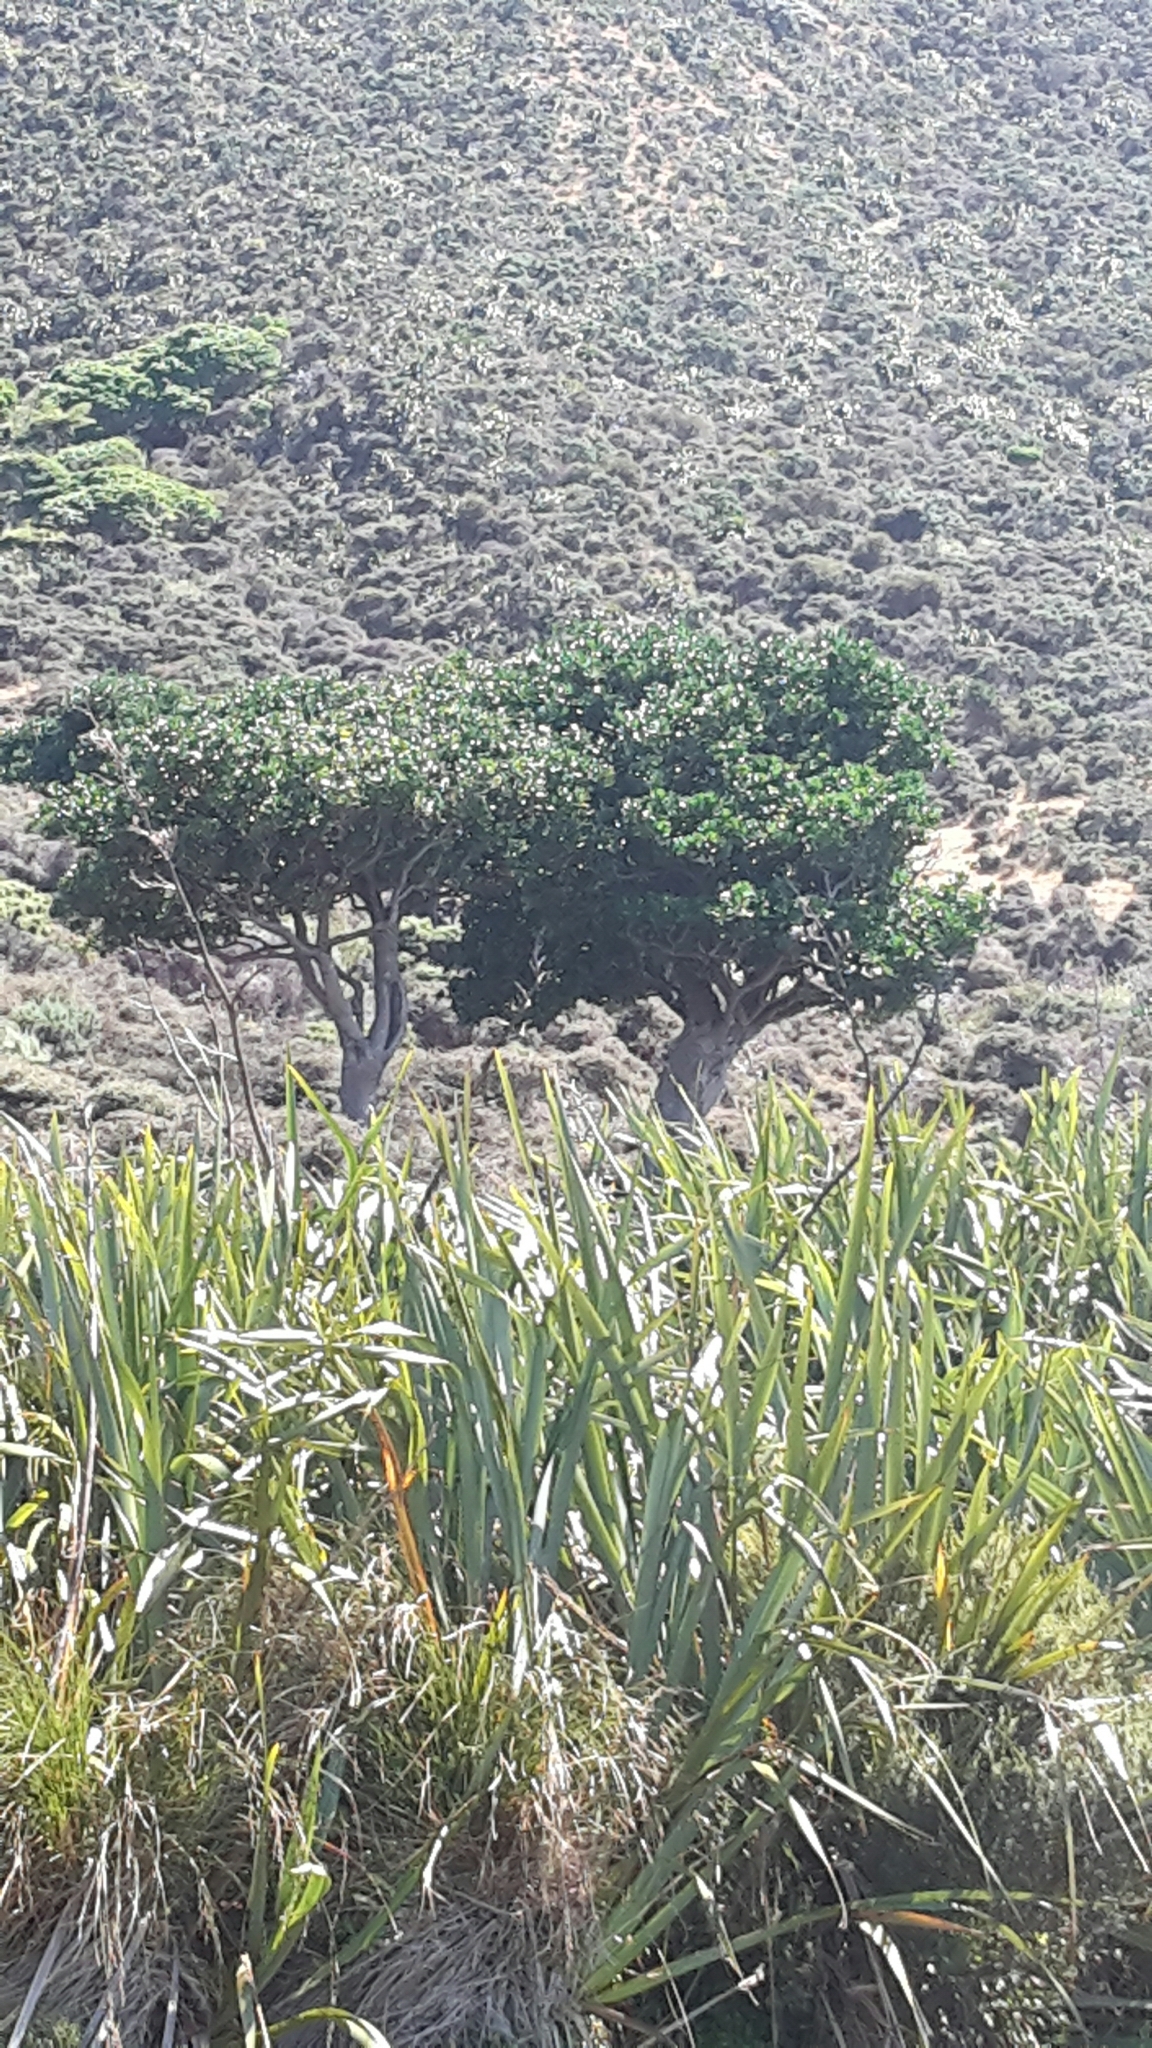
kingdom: Plantae
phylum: Tracheophyta
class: Magnoliopsida
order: Cucurbitales
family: Corynocarpaceae
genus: Corynocarpus
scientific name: Corynocarpus laevigatus
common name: New zealand laurel
